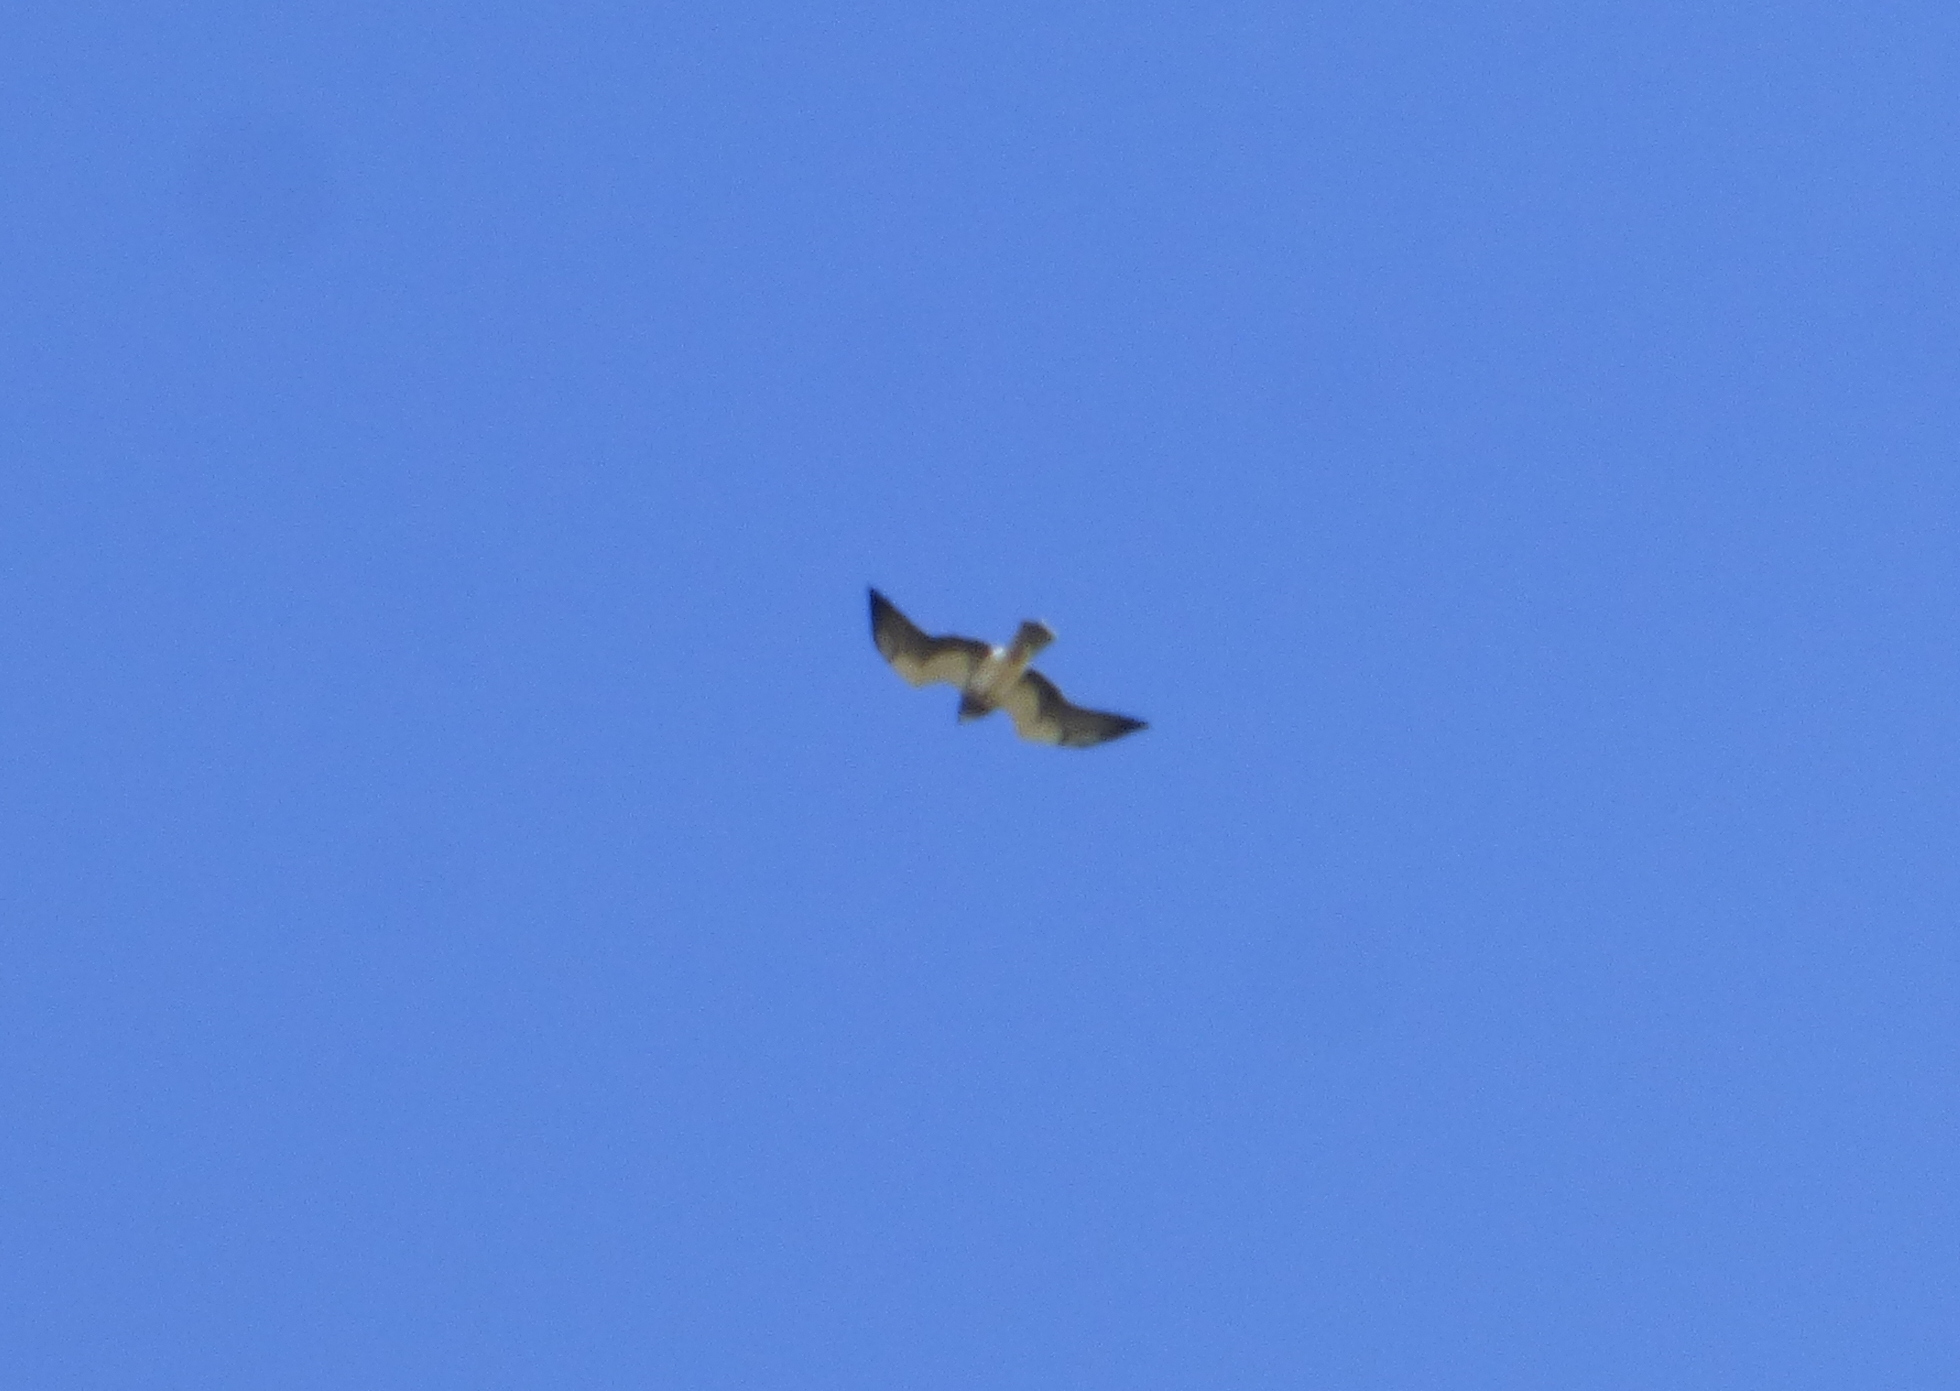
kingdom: Animalia
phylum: Chordata
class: Aves
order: Accipitriformes
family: Accipitridae
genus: Buteo
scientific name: Buteo swainsoni
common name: Swainson's hawk
